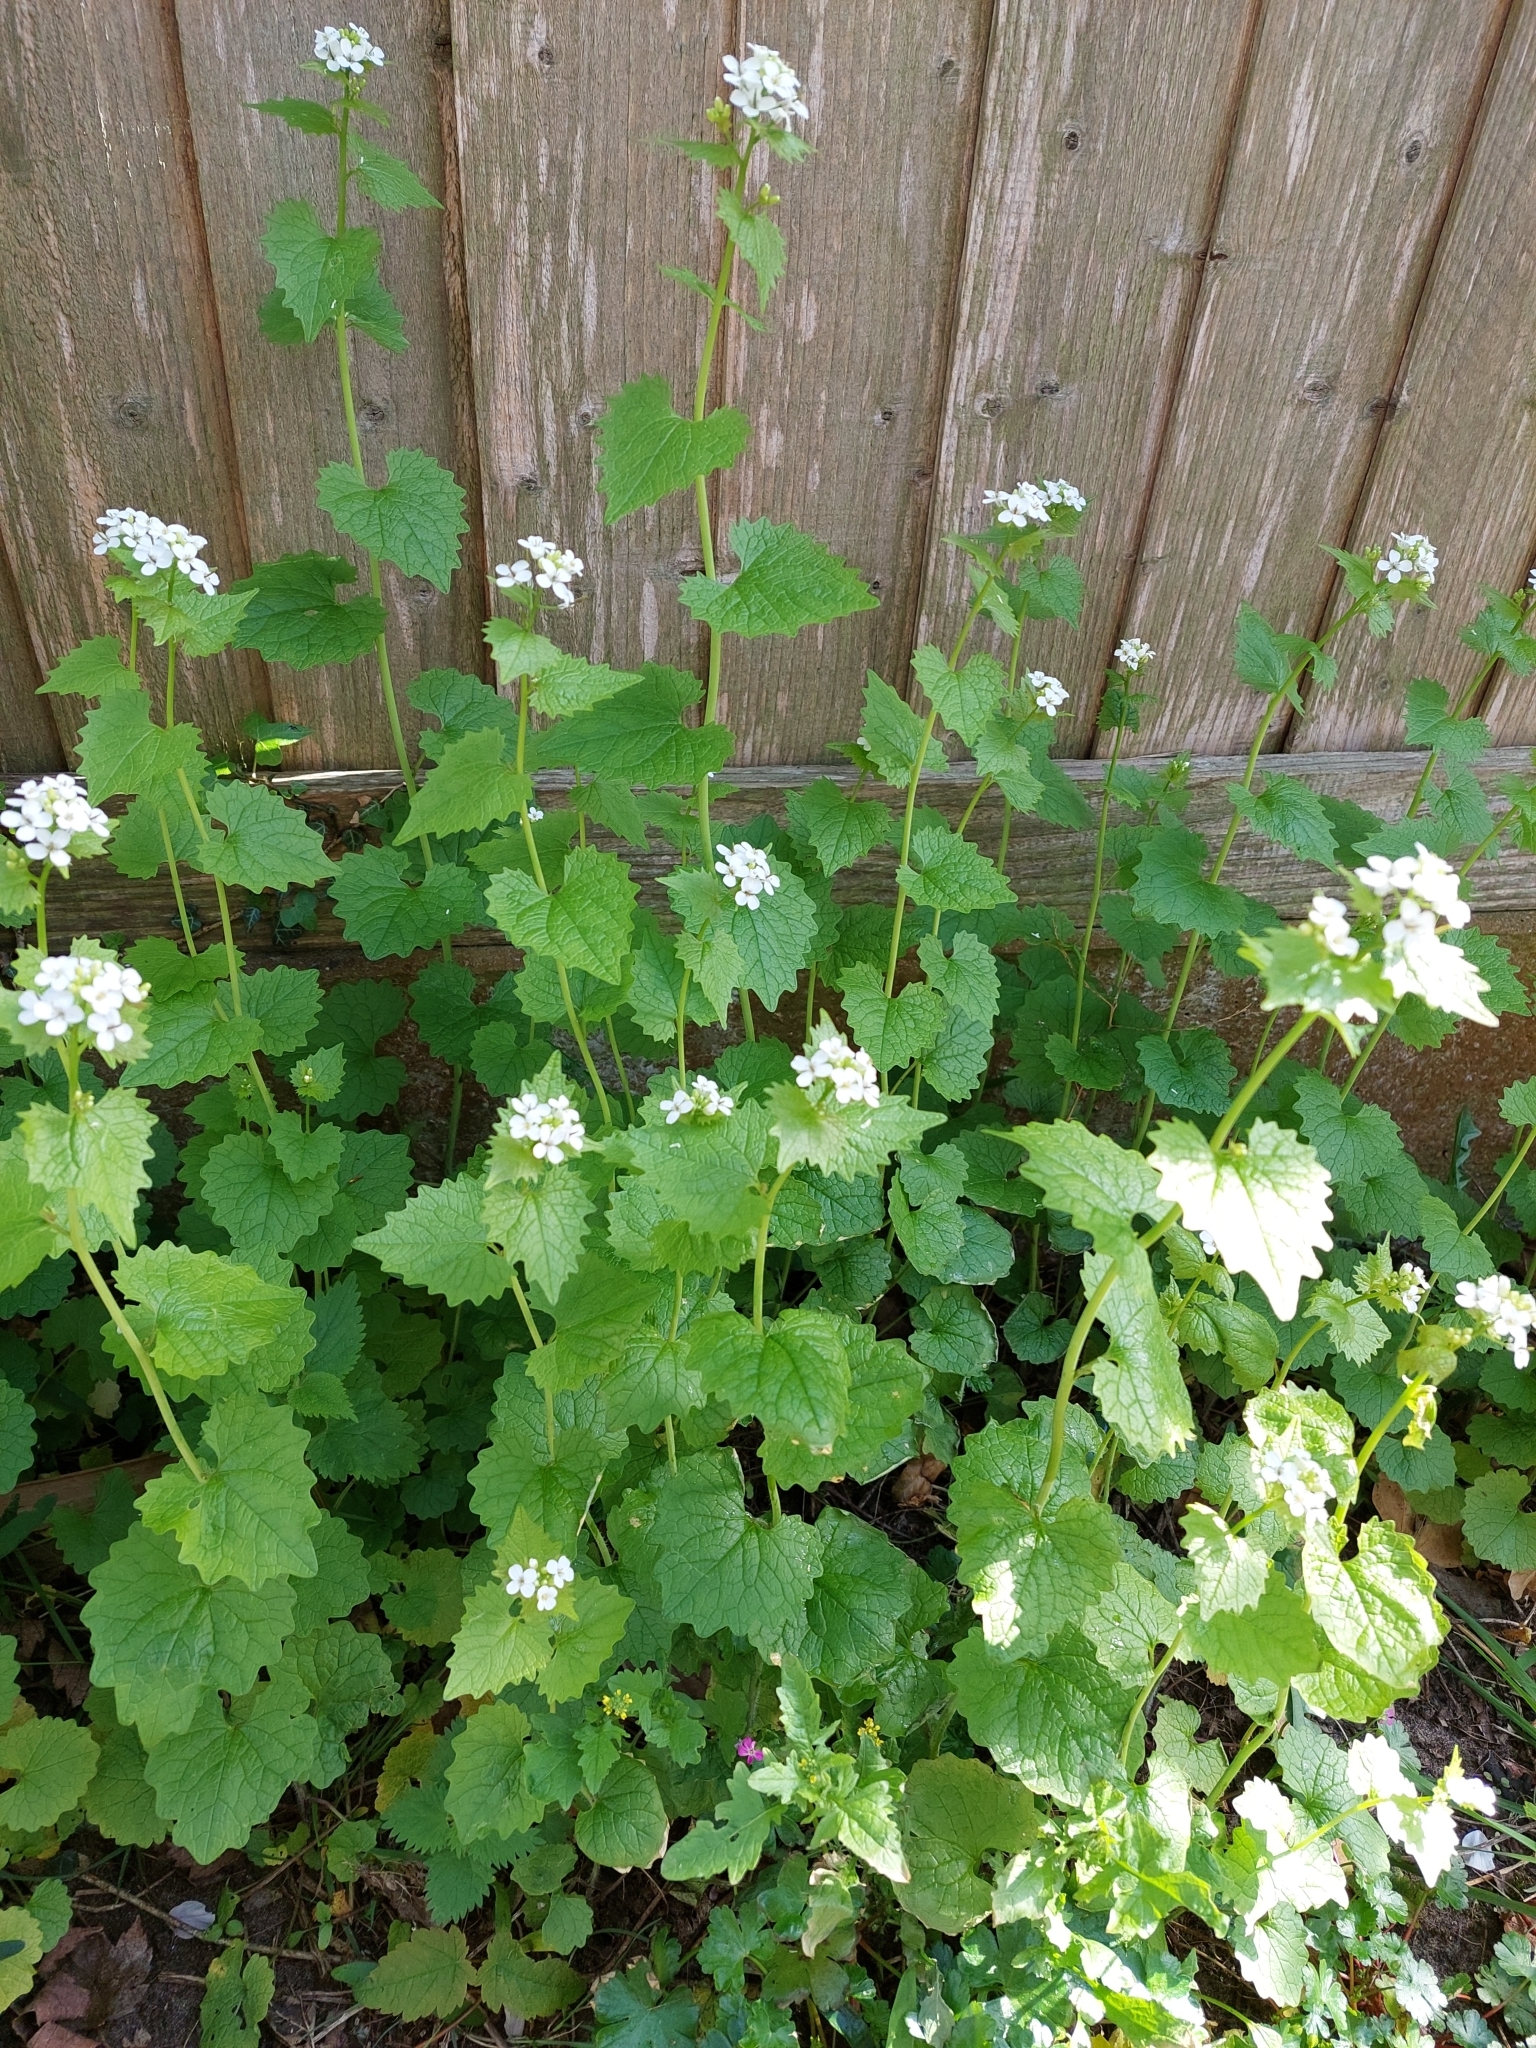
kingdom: Plantae
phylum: Tracheophyta
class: Magnoliopsida
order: Brassicales
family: Brassicaceae
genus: Alliaria
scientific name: Alliaria petiolata
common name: Garlic mustard
